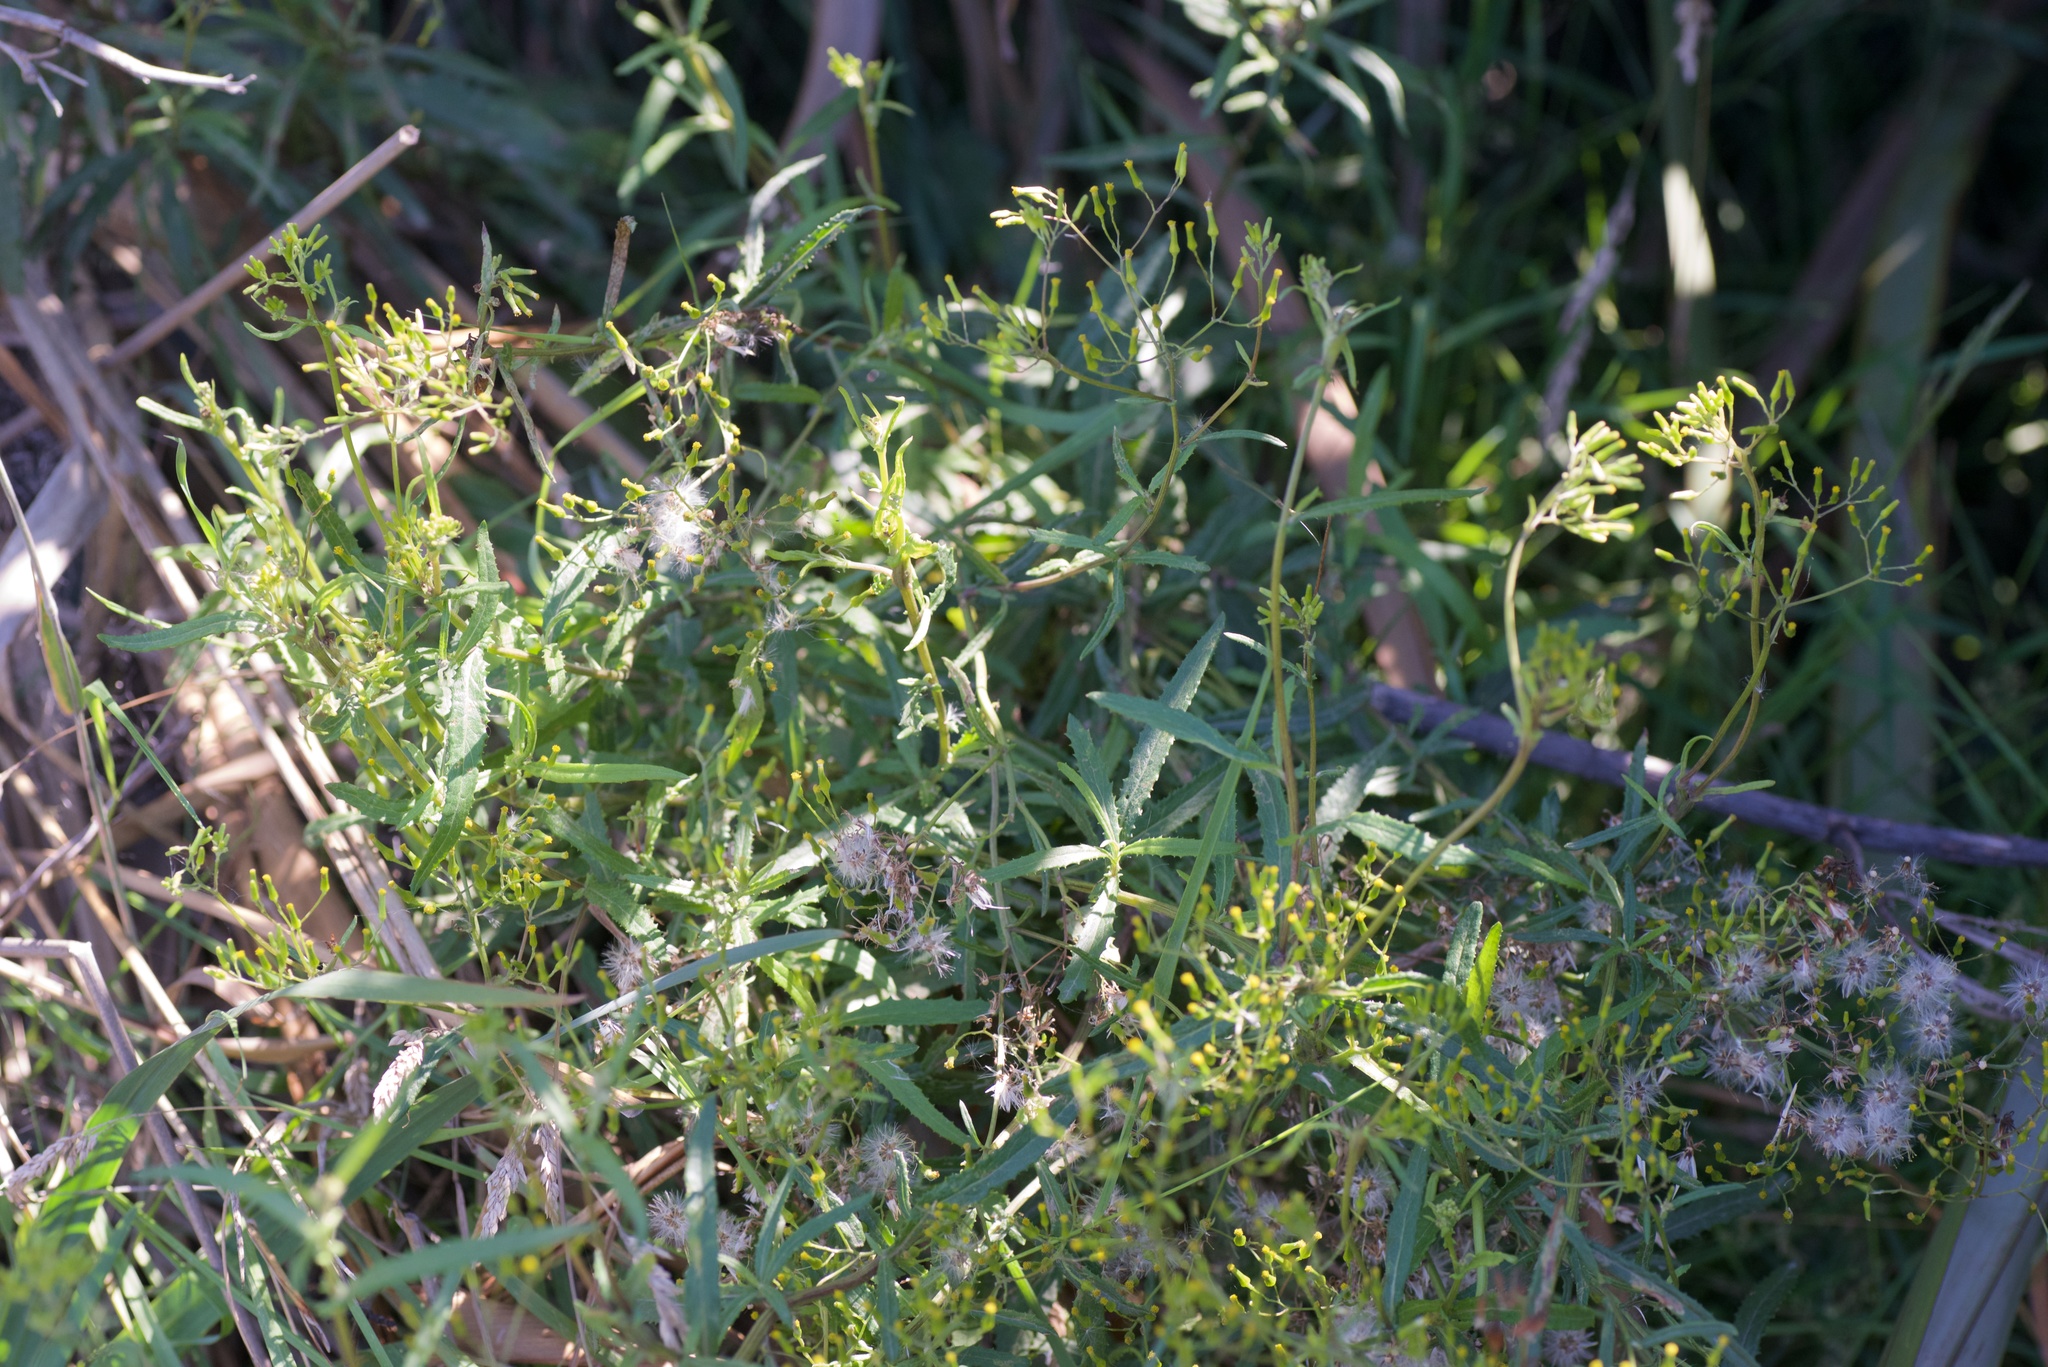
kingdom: Plantae
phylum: Tracheophyta
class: Magnoliopsida
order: Asterales
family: Asteraceae
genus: Senecio
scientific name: Senecio minimus
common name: Toothed fireweed
